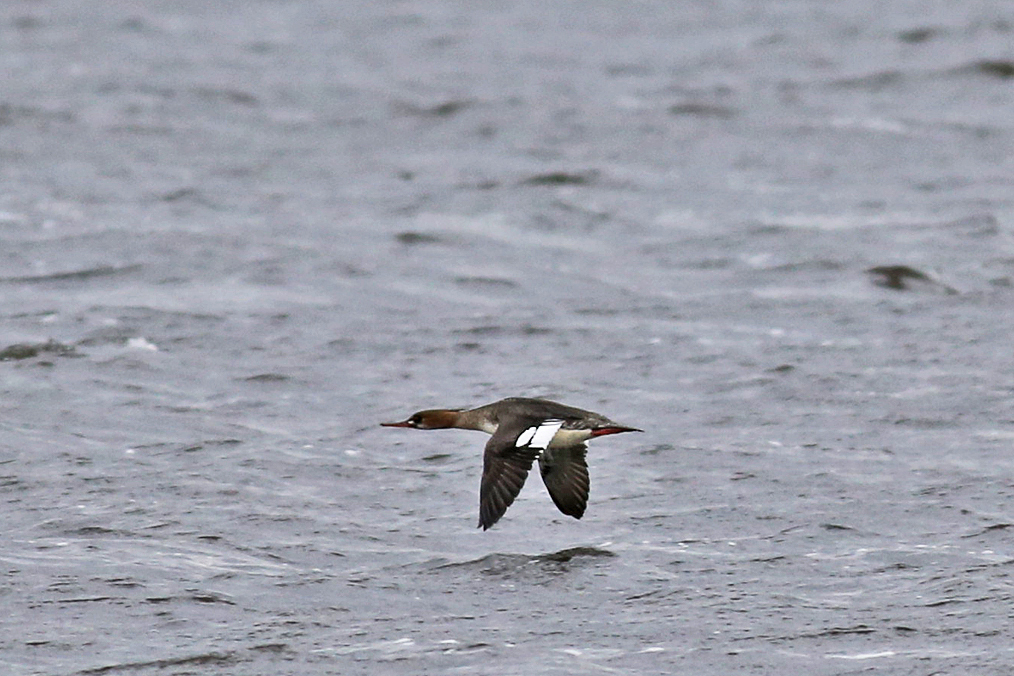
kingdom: Animalia
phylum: Chordata
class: Aves
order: Anseriformes
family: Anatidae
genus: Mergus
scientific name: Mergus serrator
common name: Red-breasted merganser
